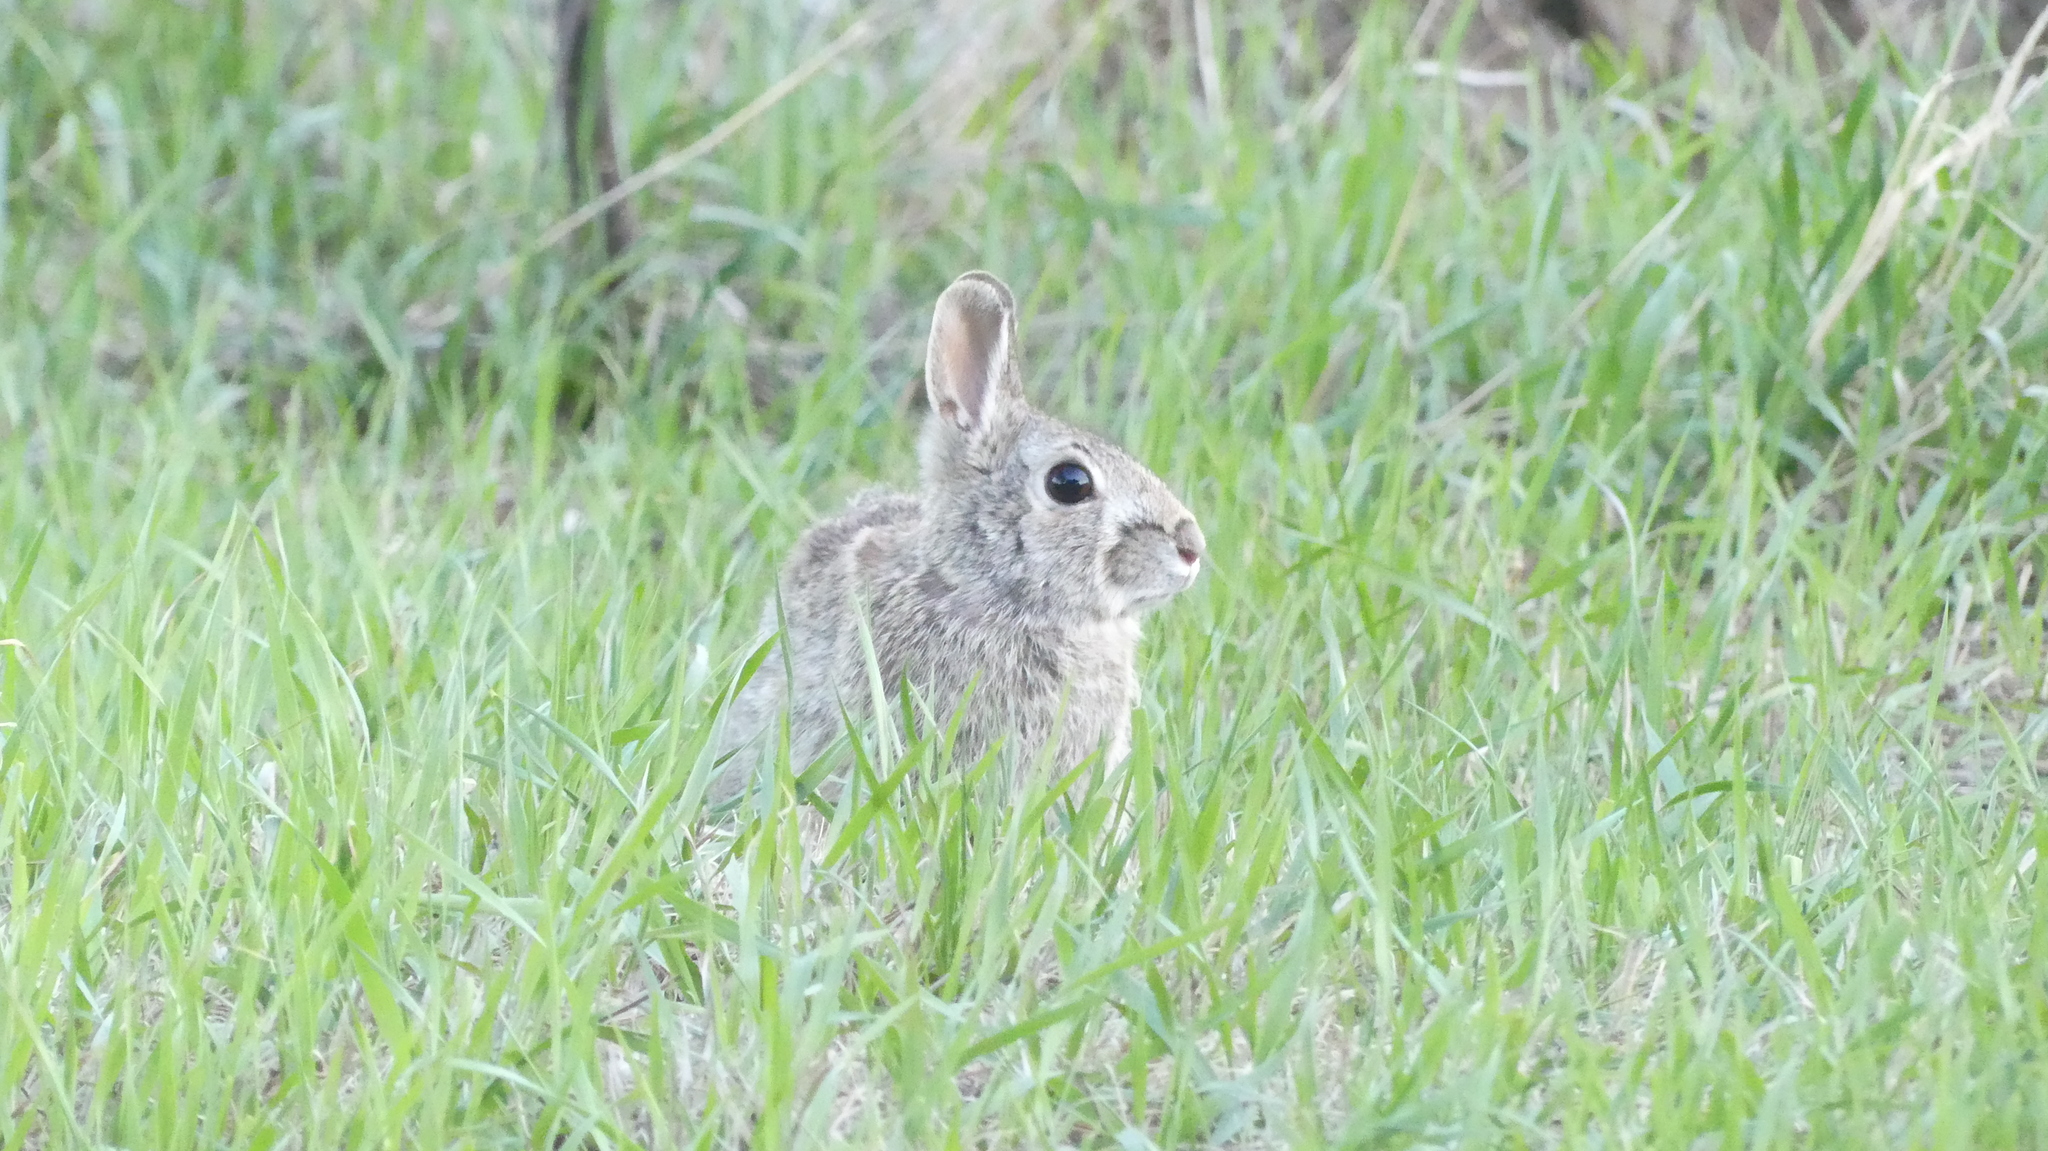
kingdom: Animalia
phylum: Chordata
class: Mammalia
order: Lagomorpha
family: Leporidae
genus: Sylvilagus
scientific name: Sylvilagus floridanus
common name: Eastern cottontail
